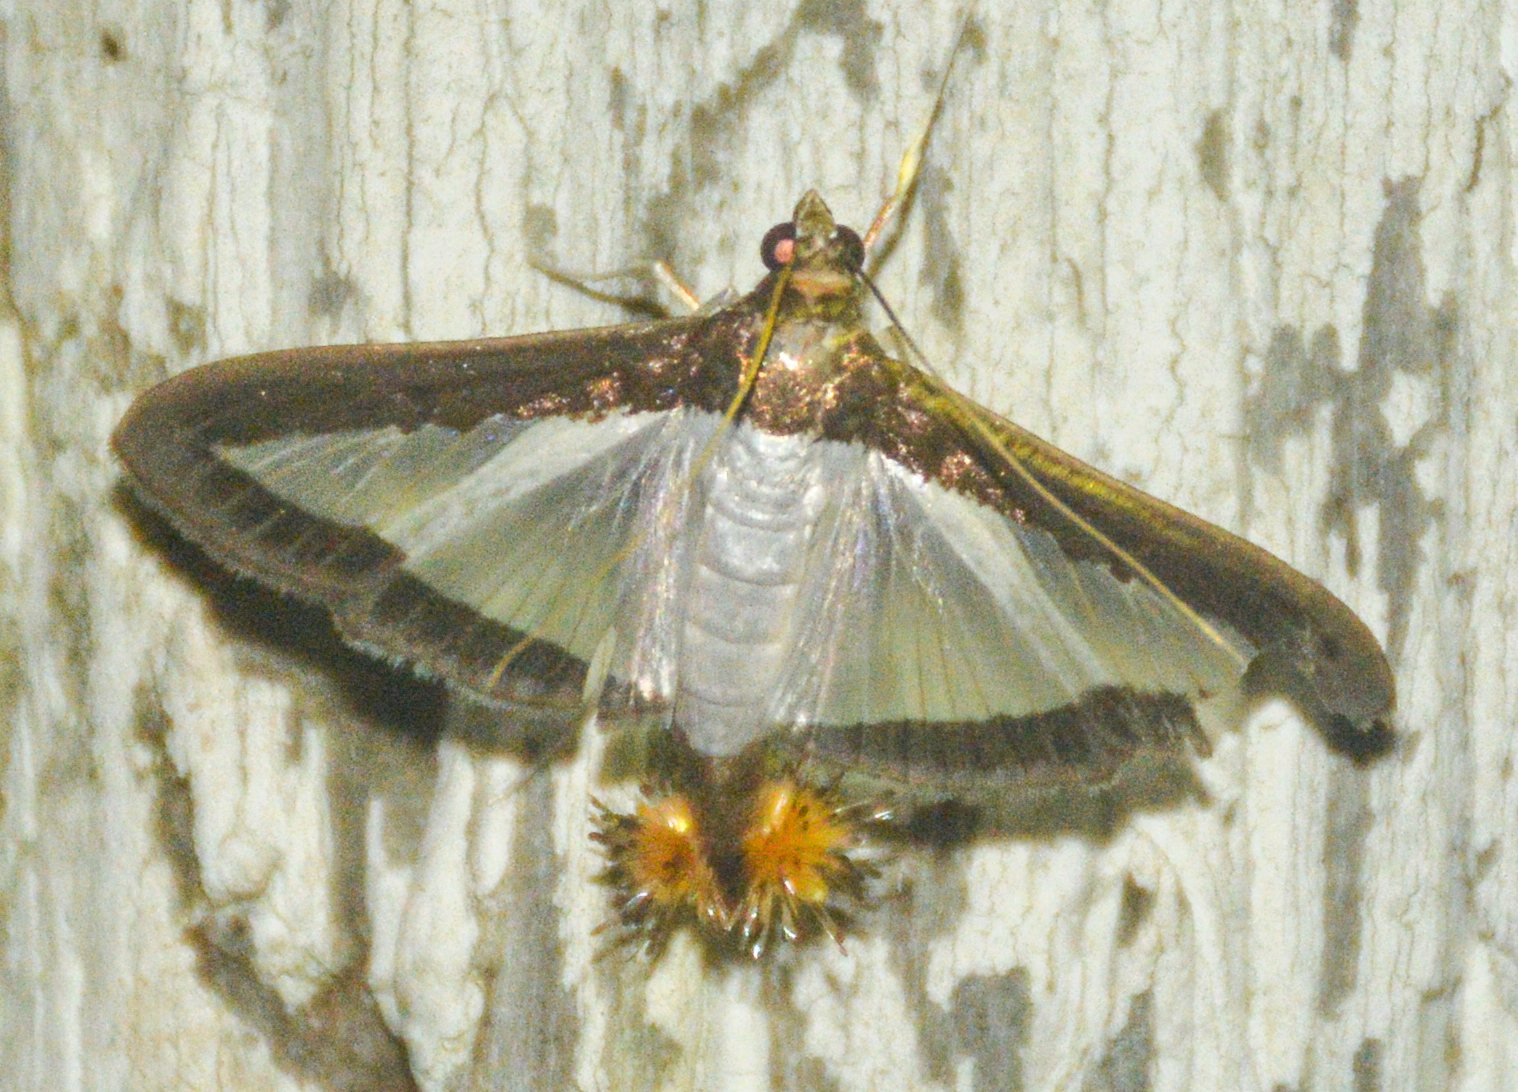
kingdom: Animalia
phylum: Arthropoda
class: Insecta
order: Lepidoptera
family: Crambidae
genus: Diaphania
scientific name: Diaphania hyalinata
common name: Melonworm
